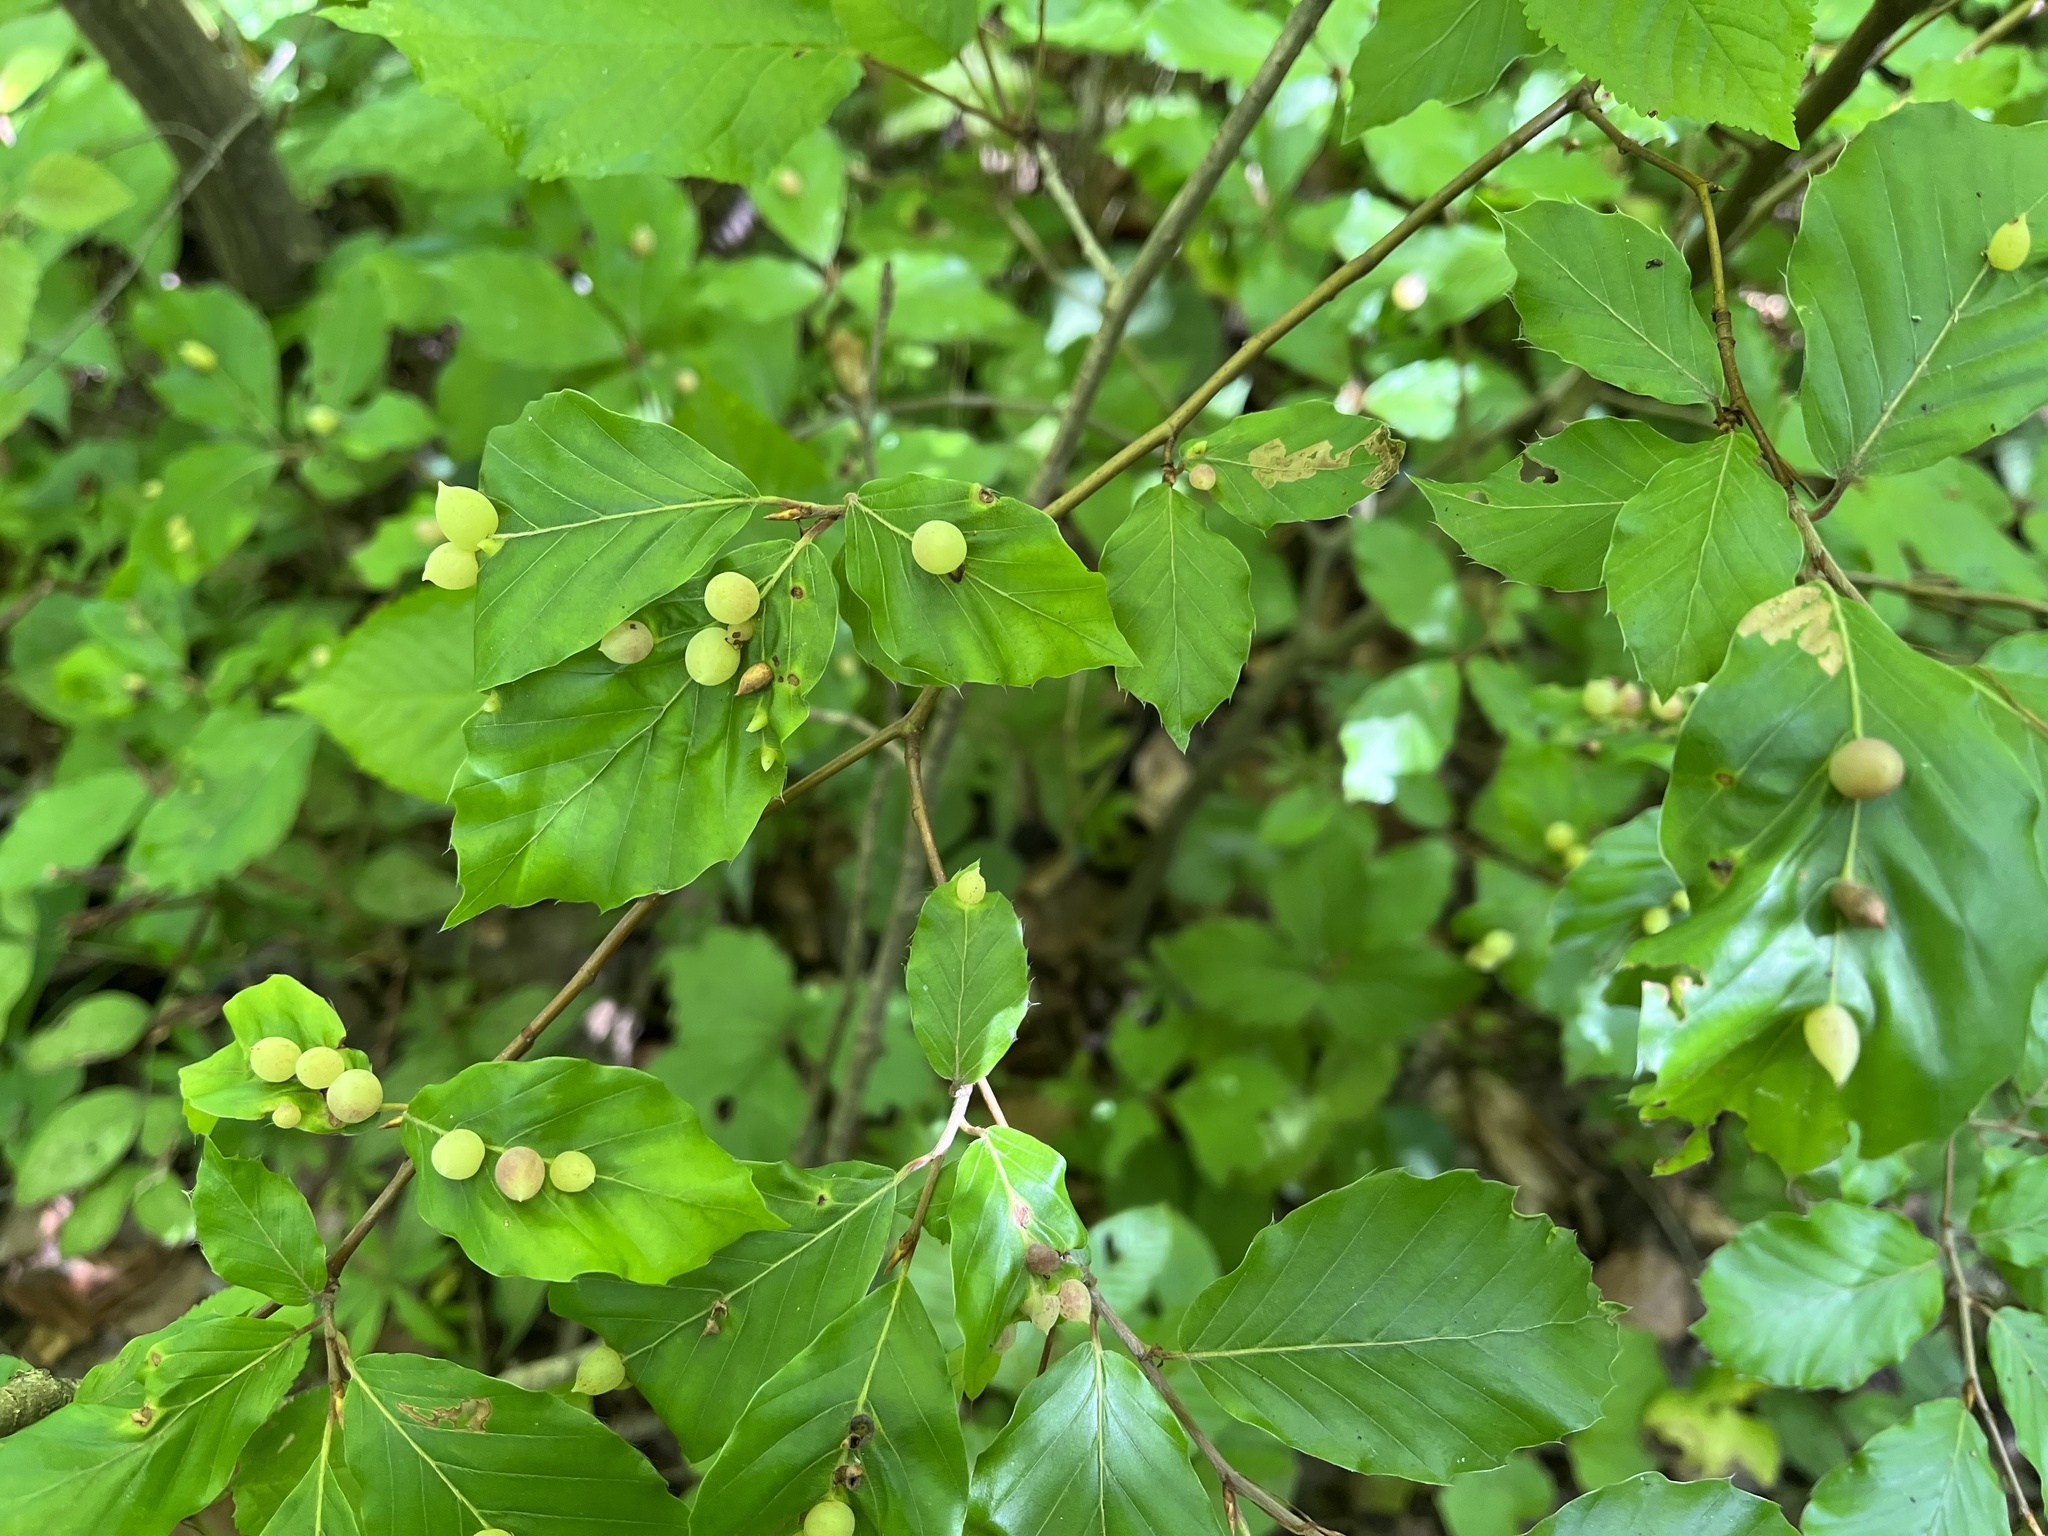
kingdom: Animalia
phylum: Arthropoda
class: Insecta
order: Diptera
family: Cecidomyiidae
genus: Mikiola
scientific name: Mikiola fagi
